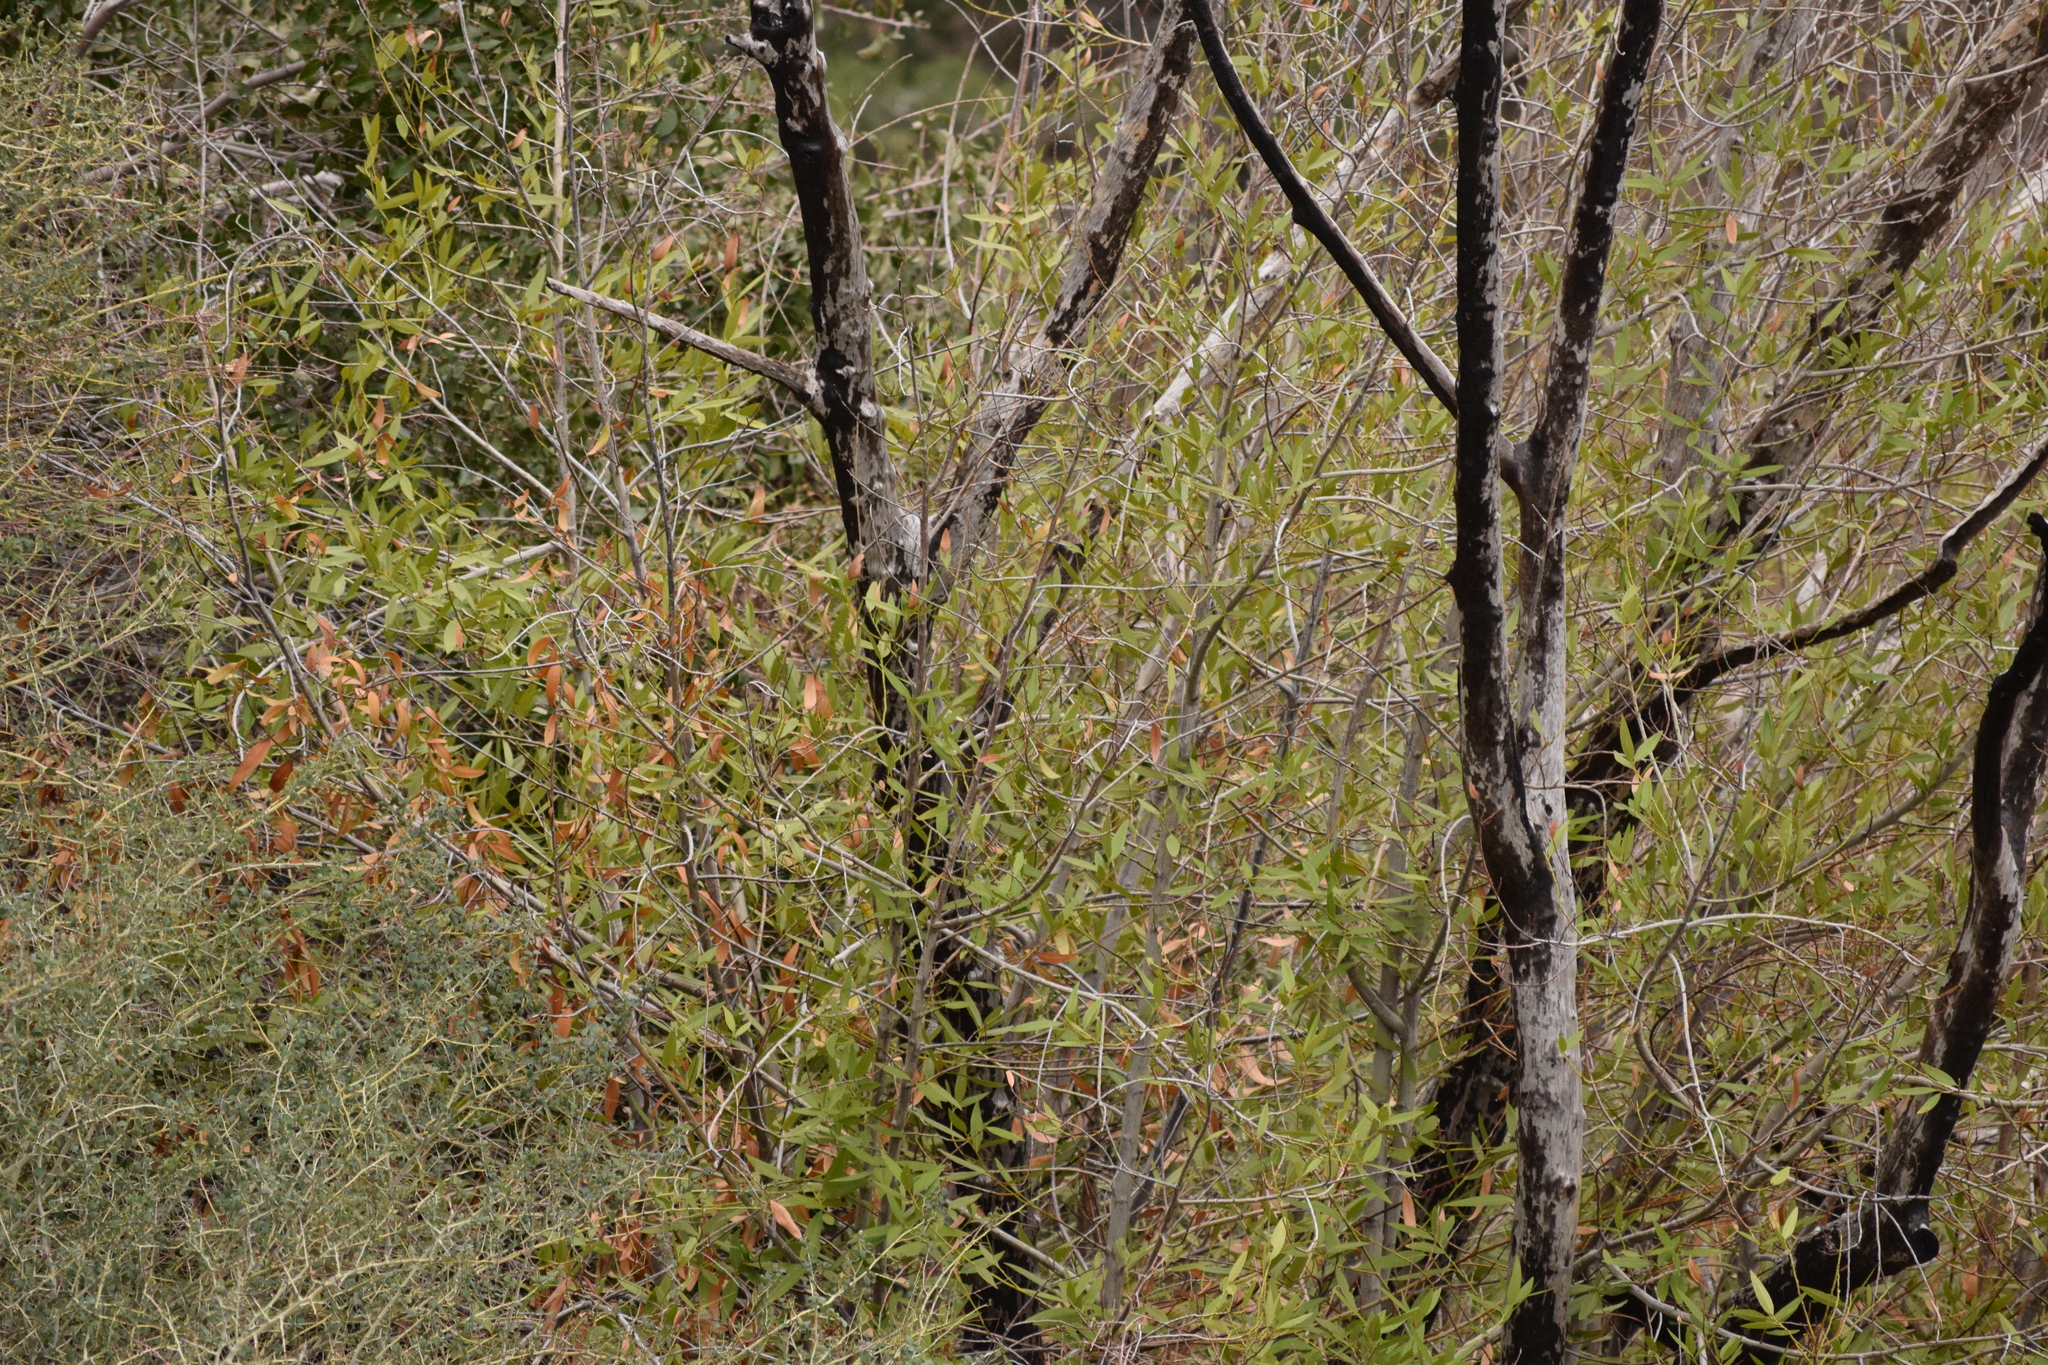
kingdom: Plantae
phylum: Tracheophyta
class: Magnoliopsida
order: Laurales
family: Lauraceae
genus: Umbellularia
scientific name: Umbellularia californica
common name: California bay
